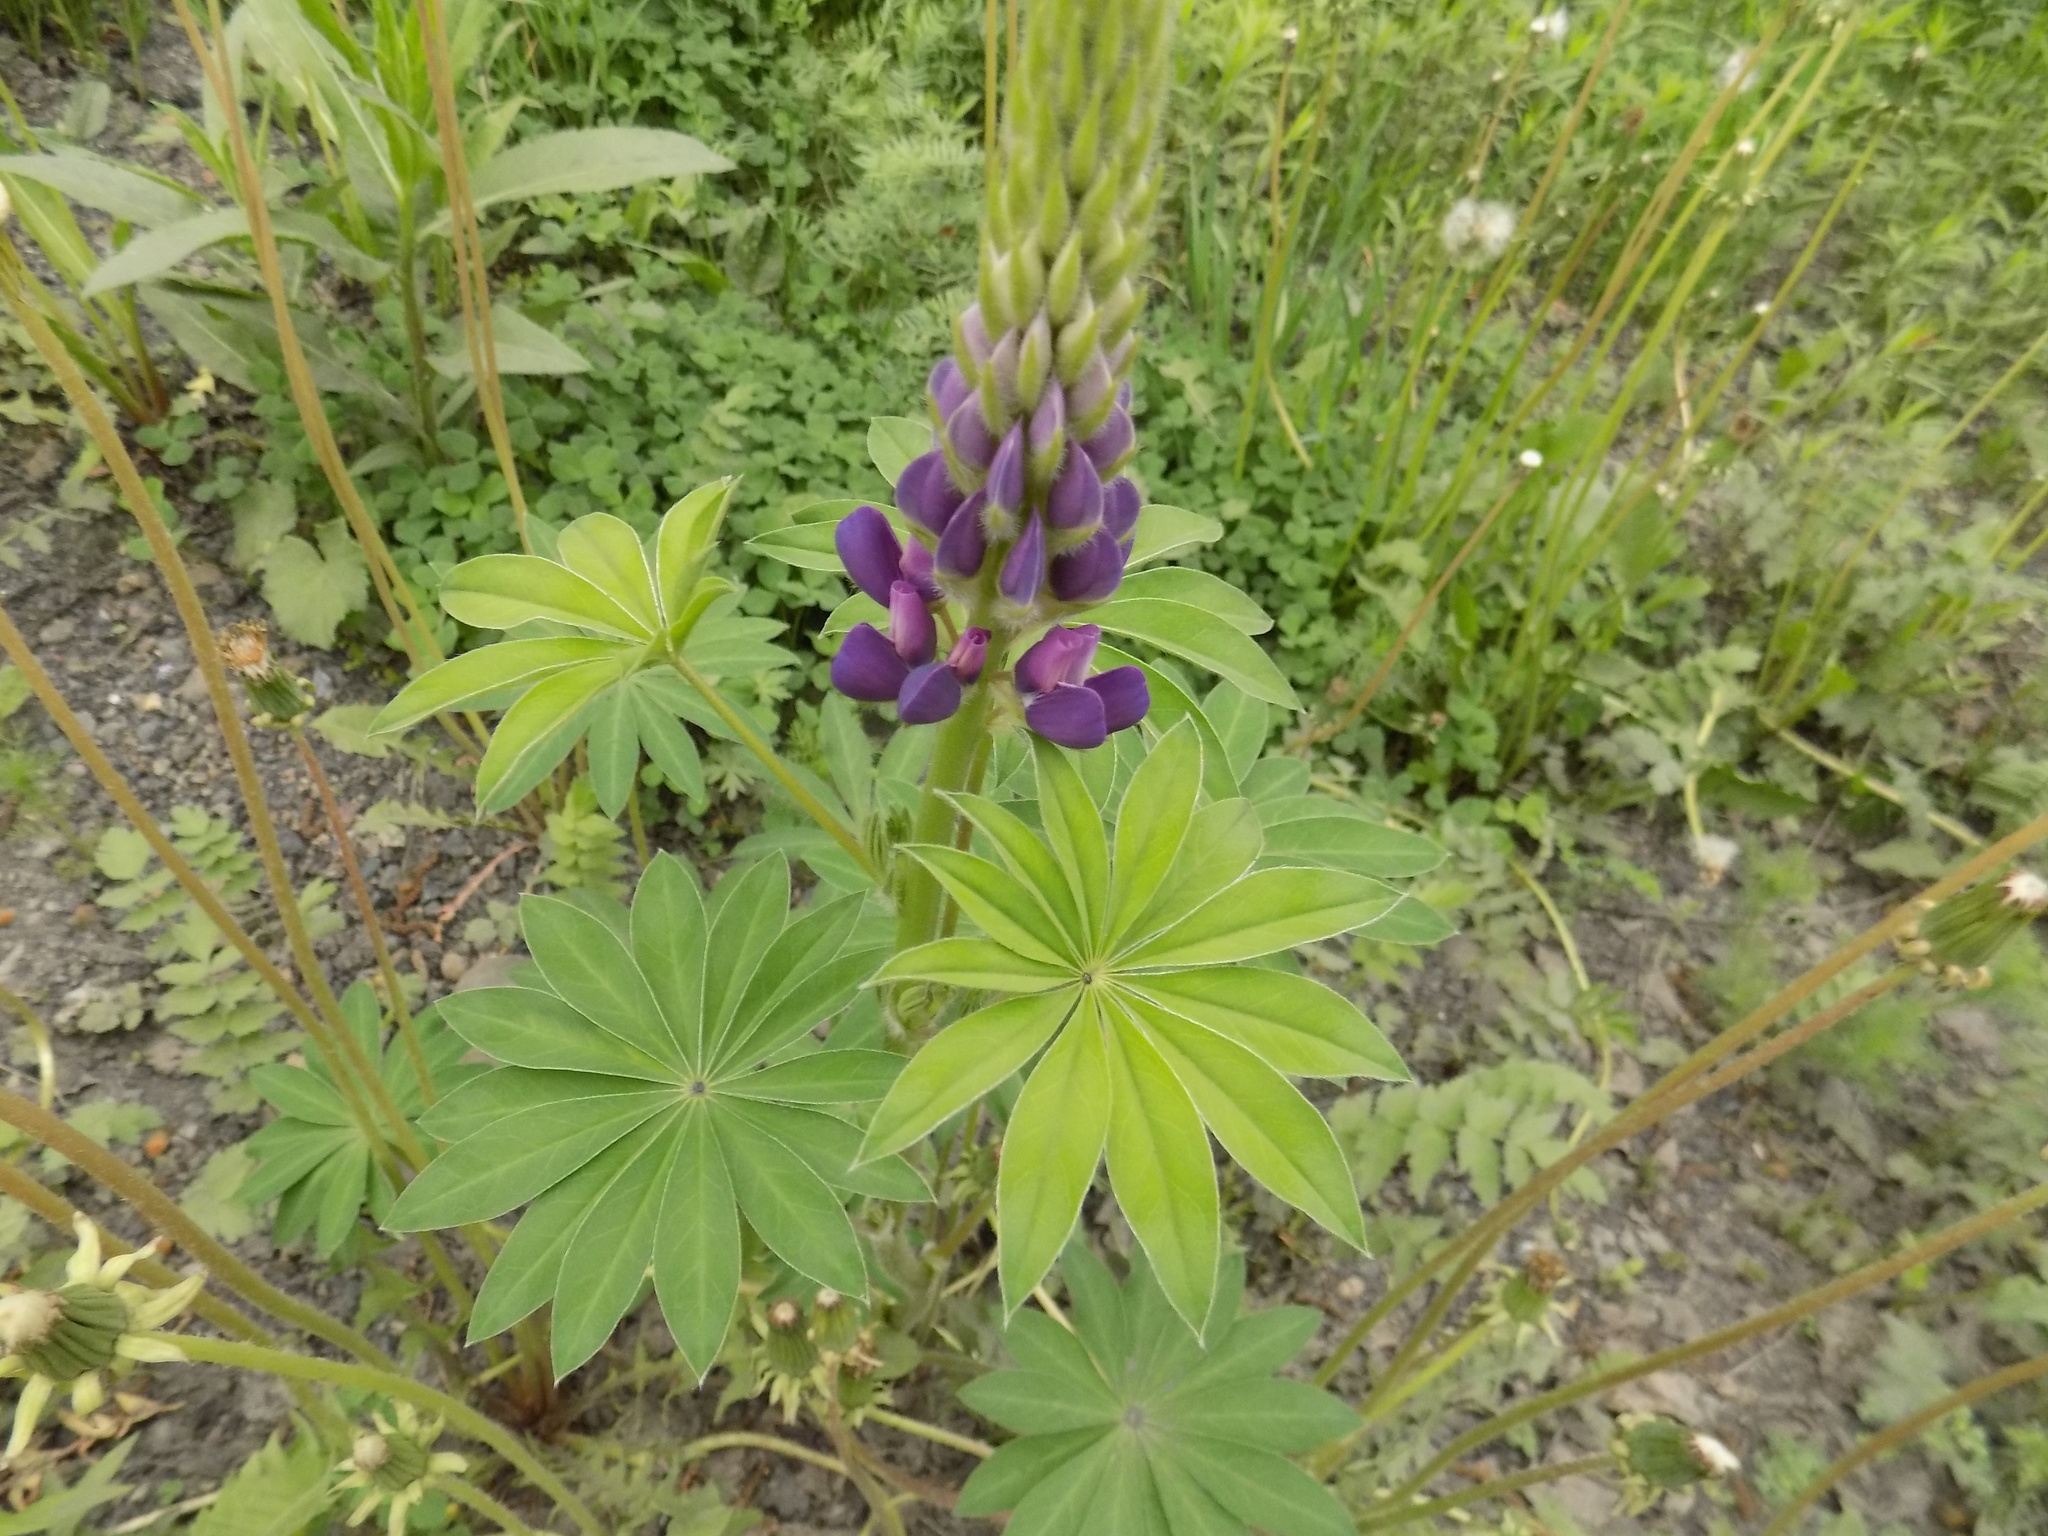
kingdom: Plantae
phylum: Tracheophyta
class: Magnoliopsida
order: Fabales
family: Fabaceae
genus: Lupinus
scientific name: Lupinus polyphyllus
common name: Garden lupin
